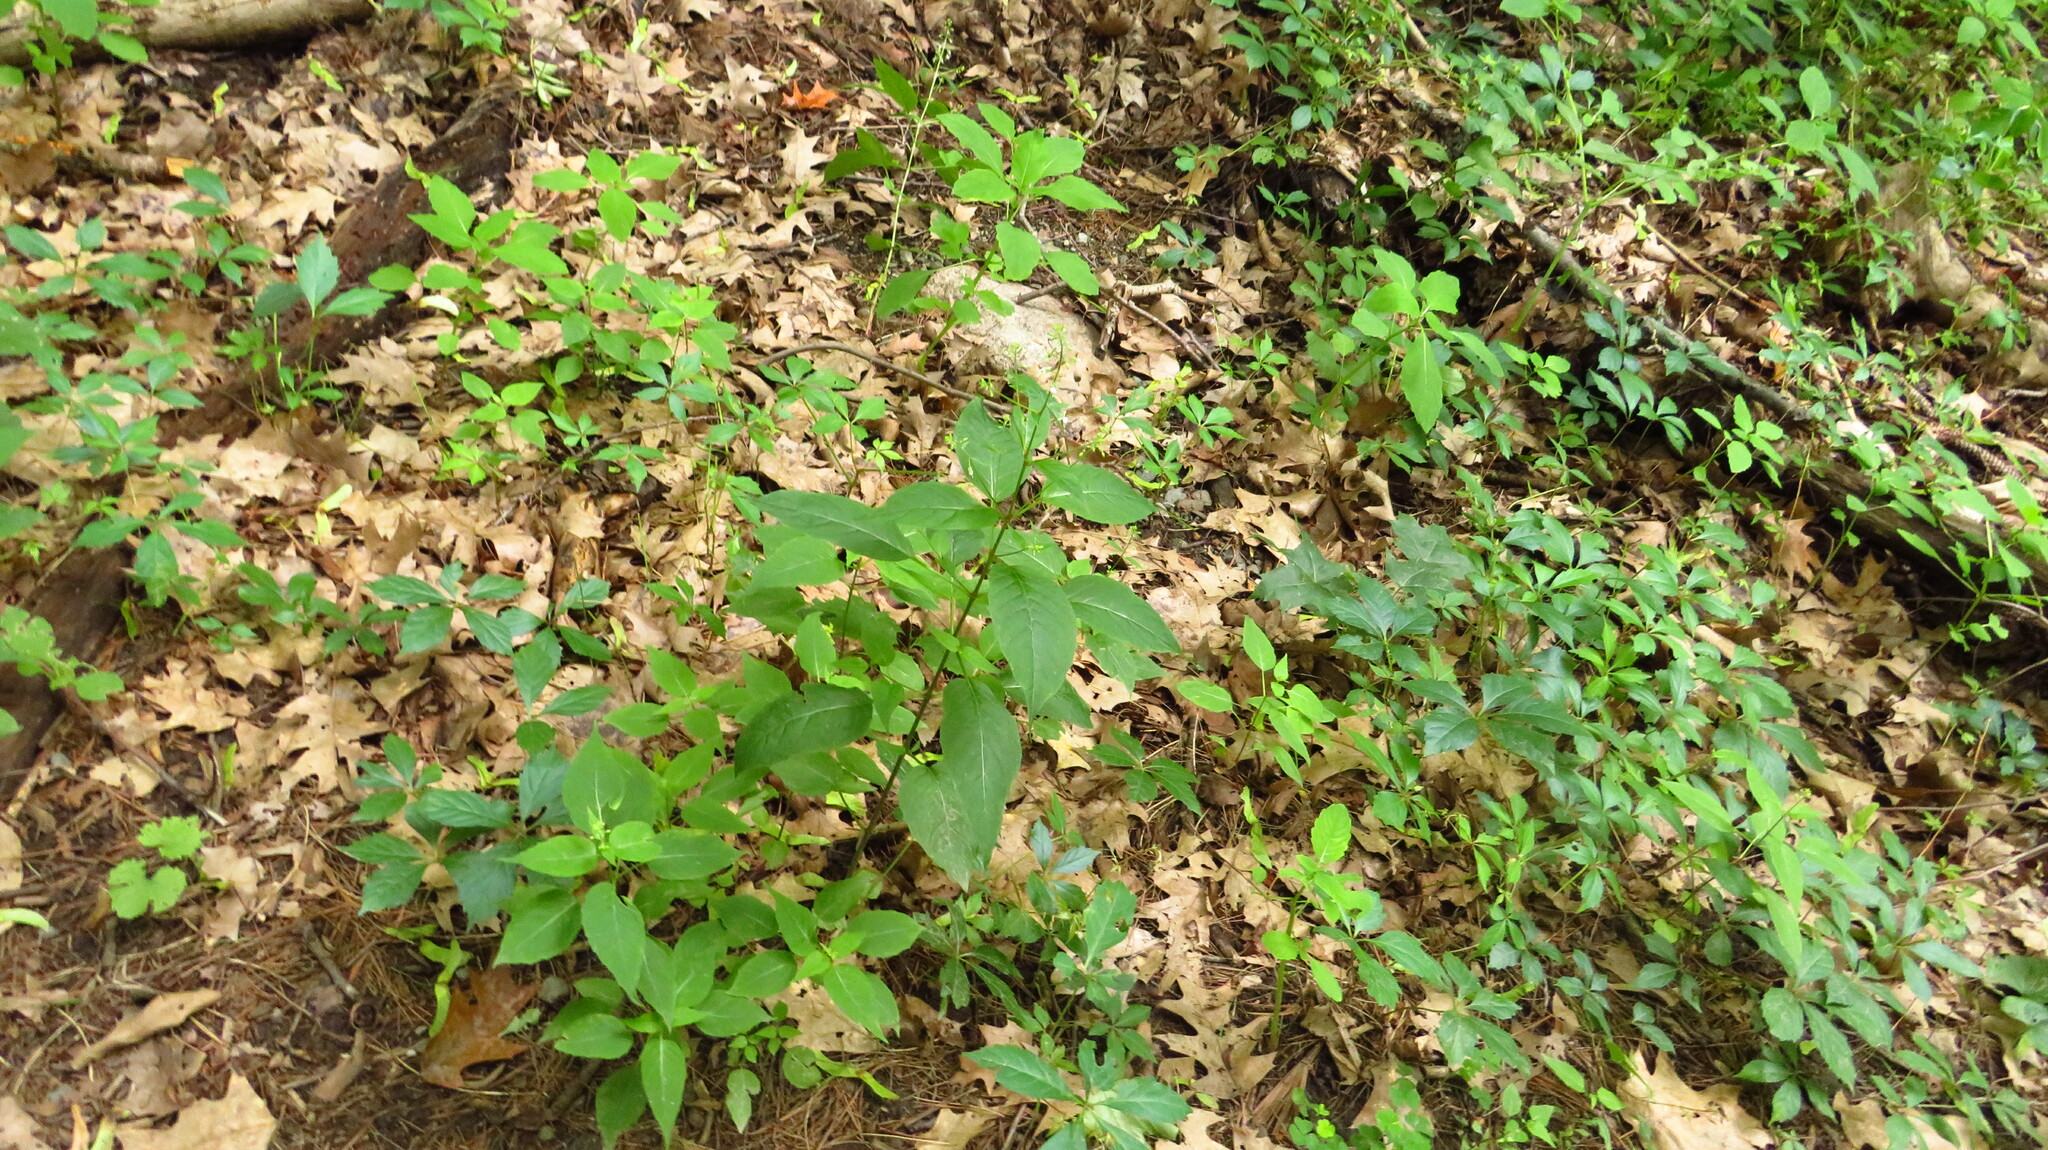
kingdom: Plantae
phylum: Tracheophyta
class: Magnoliopsida
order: Myrtales
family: Onagraceae
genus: Circaea
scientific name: Circaea canadensis
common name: Broad-leaved enchanter's nightshade
